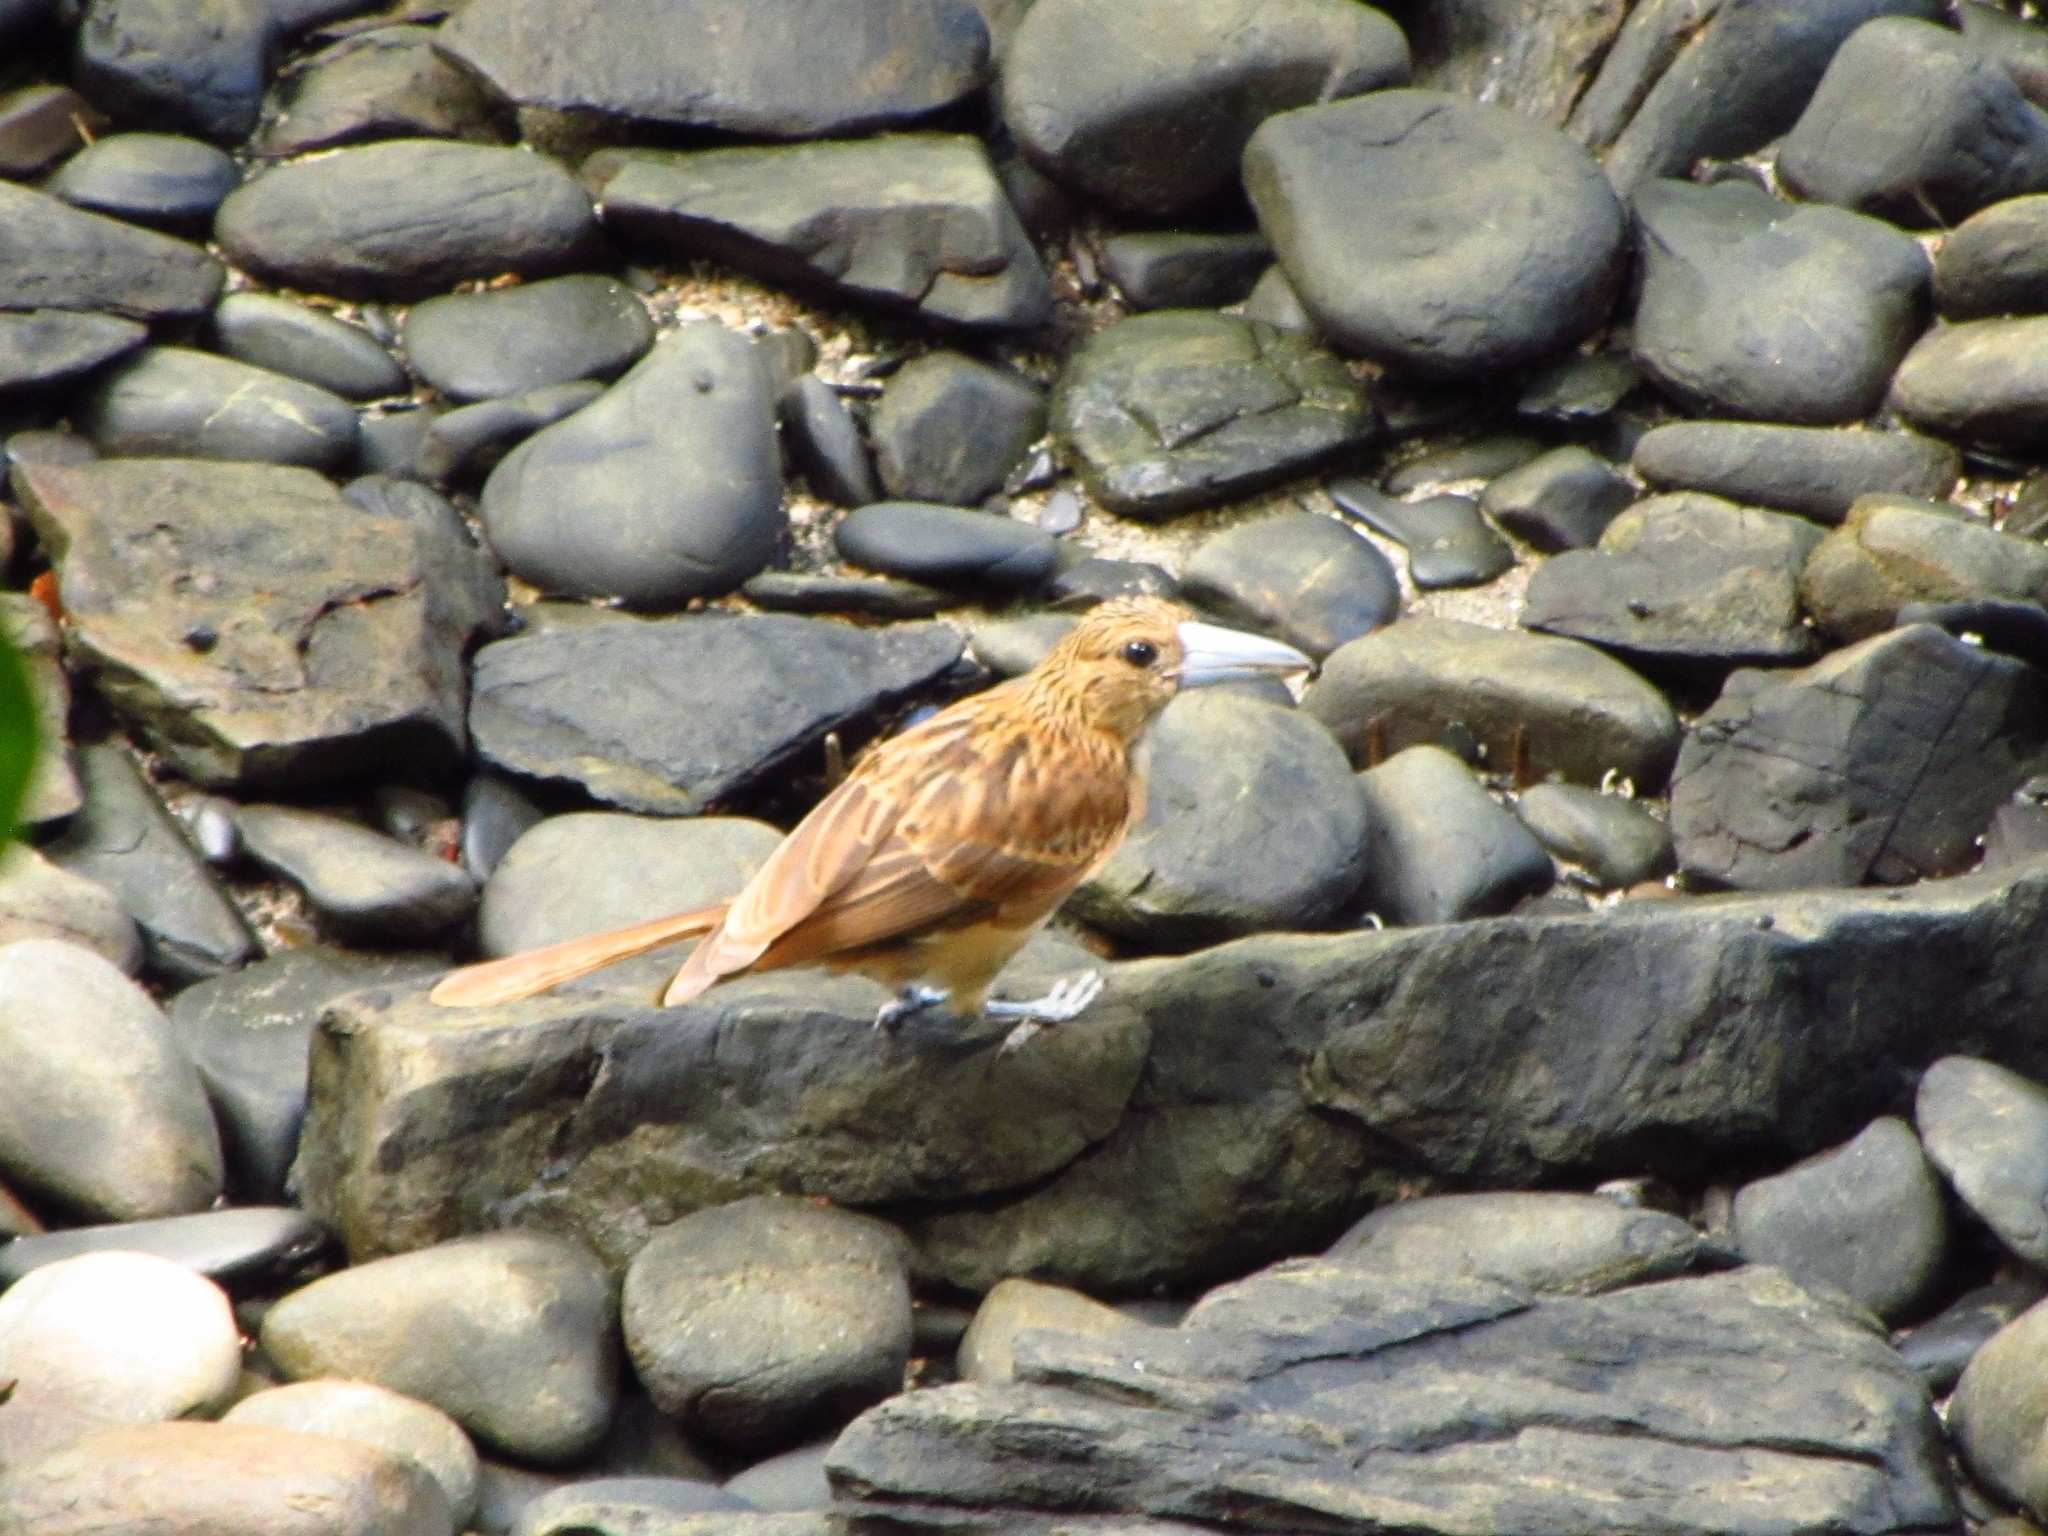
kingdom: Animalia
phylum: Chordata
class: Aves
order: Passeriformes
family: Artamidae
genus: Melloria
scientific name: Melloria quoyi
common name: Black butcherbird
